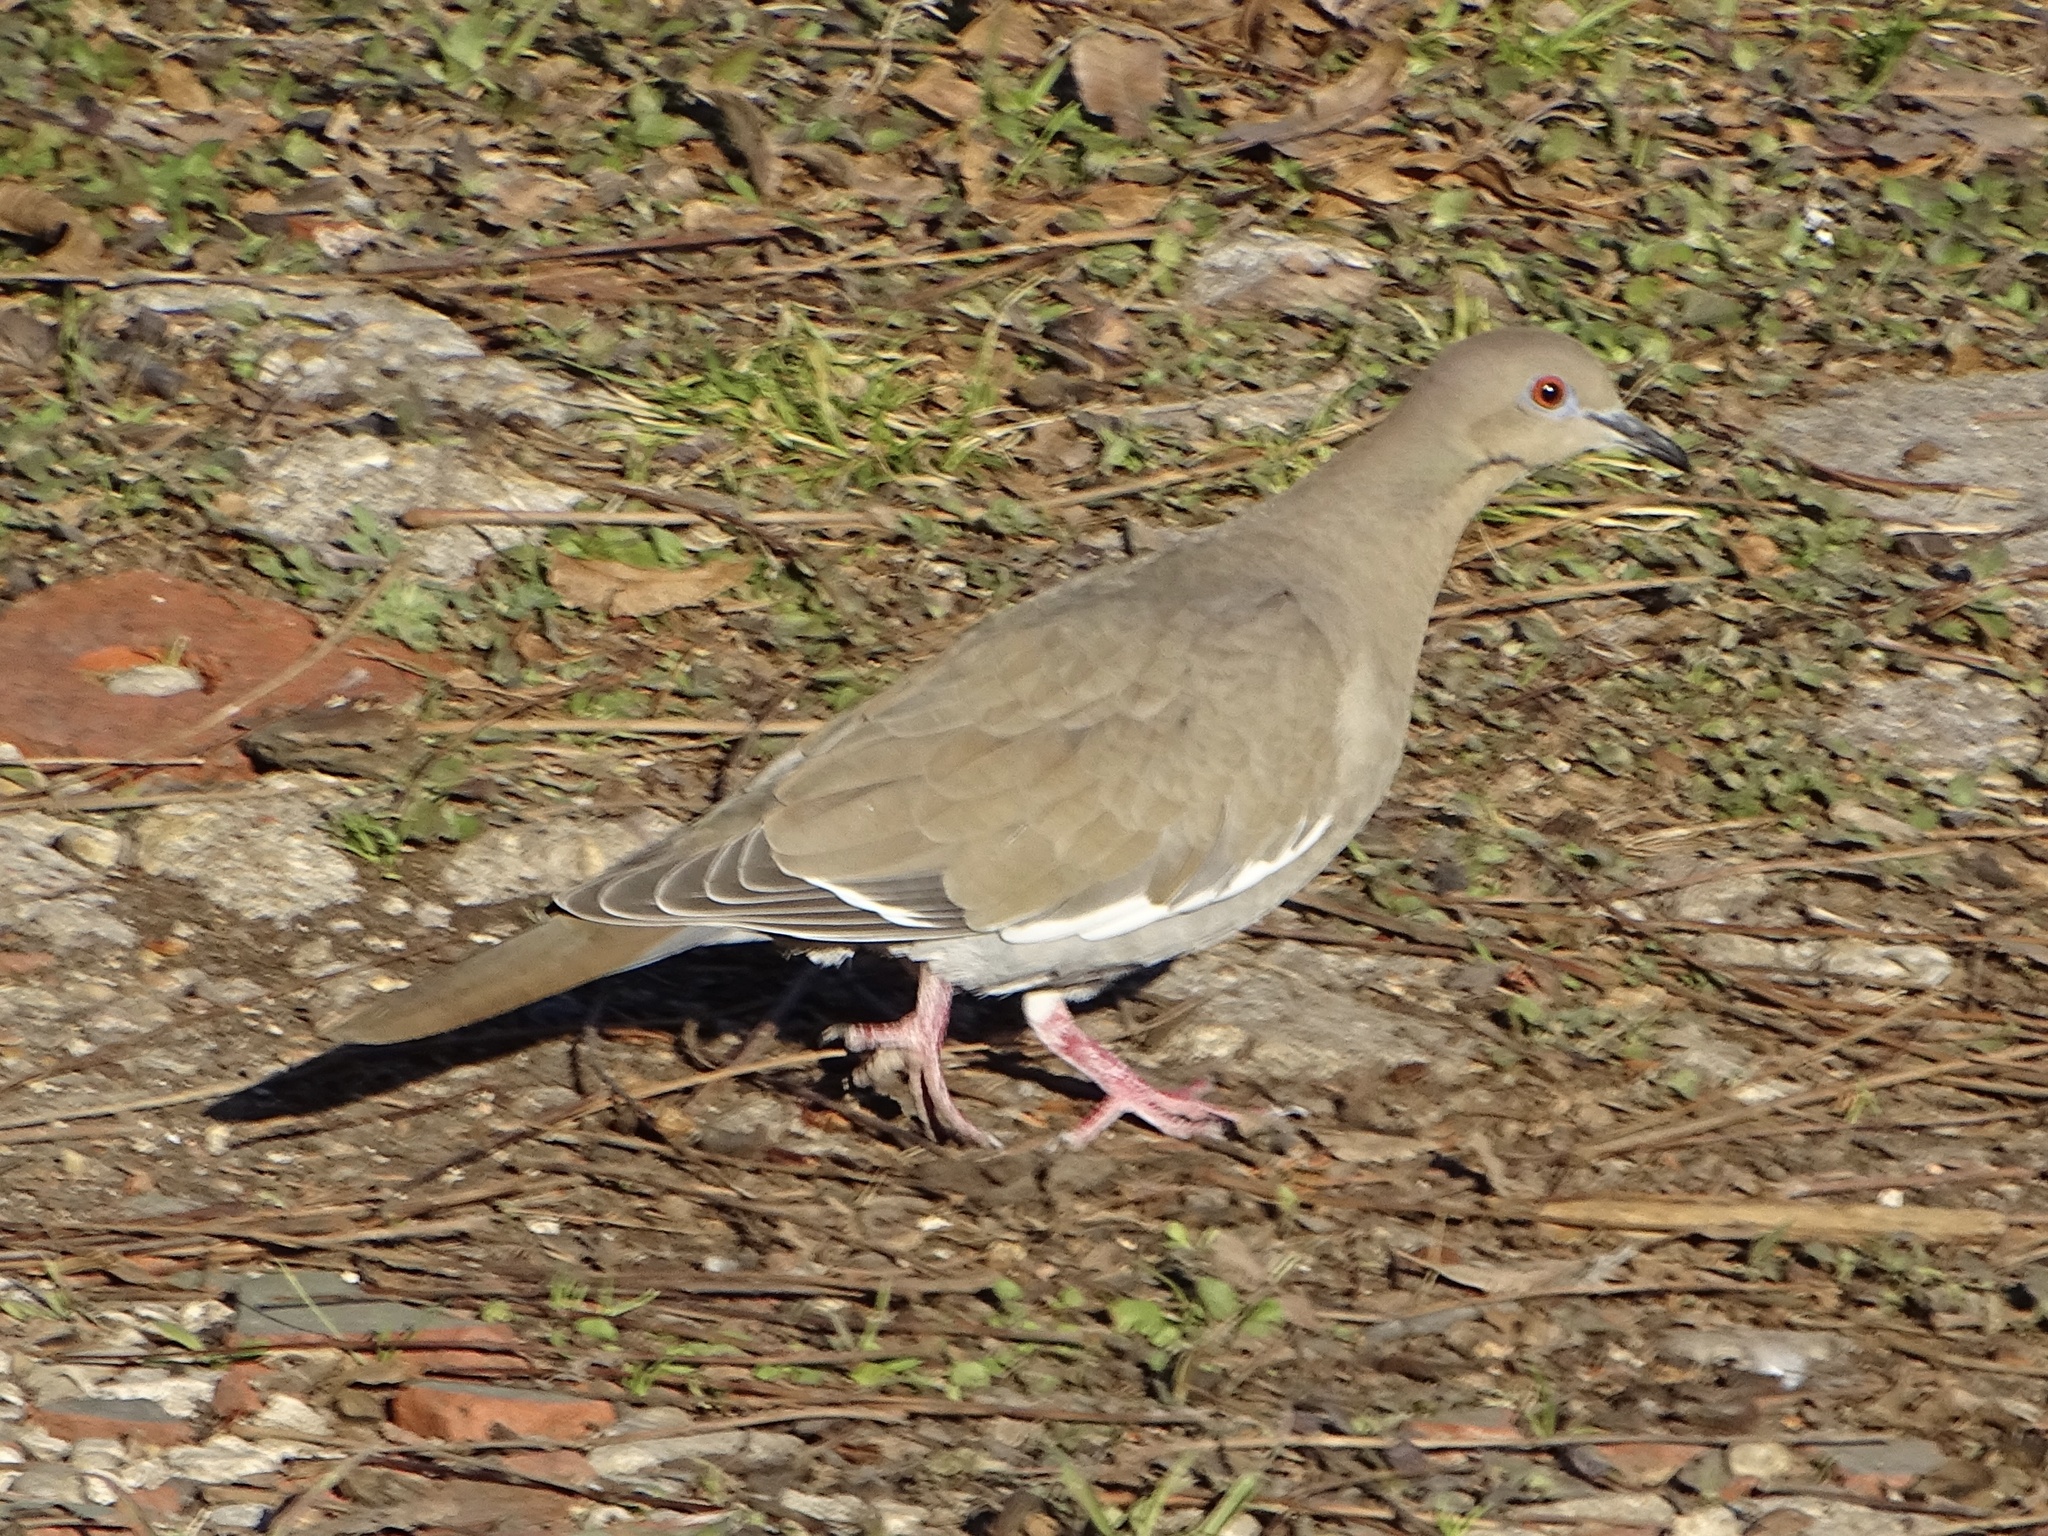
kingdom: Animalia
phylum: Chordata
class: Aves
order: Columbiformes
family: Columbidae
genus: Zenaida
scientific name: Zenaida asiatica
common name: White-winged dove
